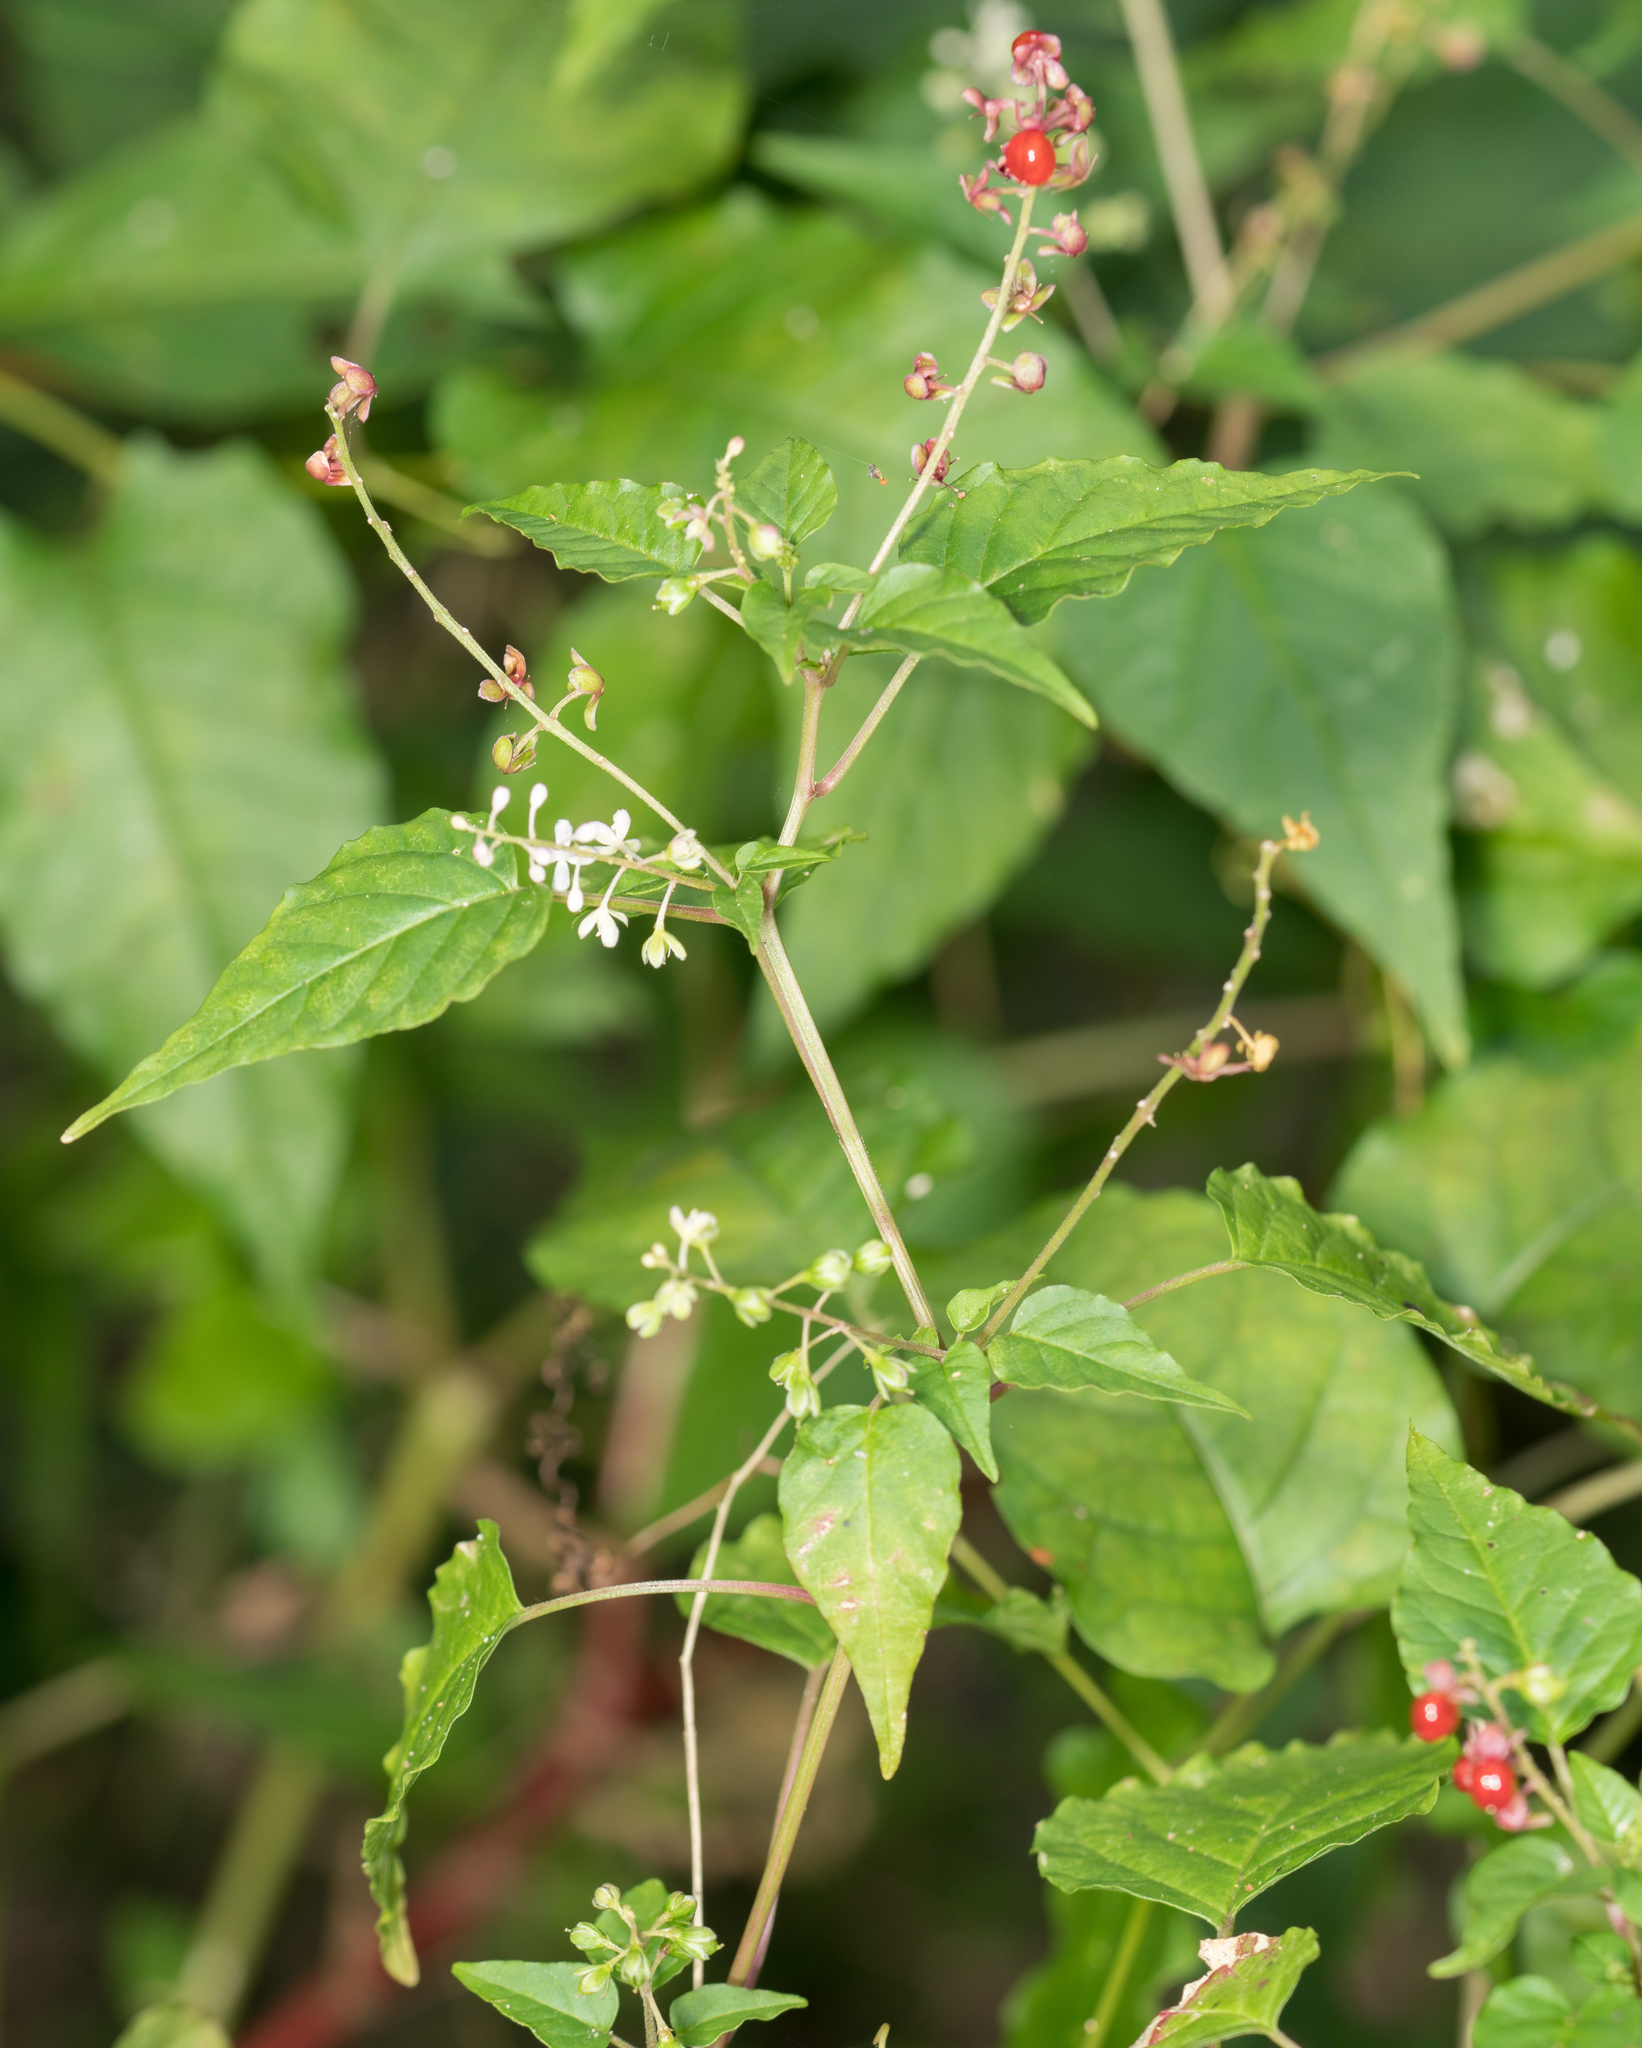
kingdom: Plantae
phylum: Tracheophyta
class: Magnoliopsida
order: Caryophyllales
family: Phytolaccaceae
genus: Rivina
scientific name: Rivina humilis
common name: Rougeplant
